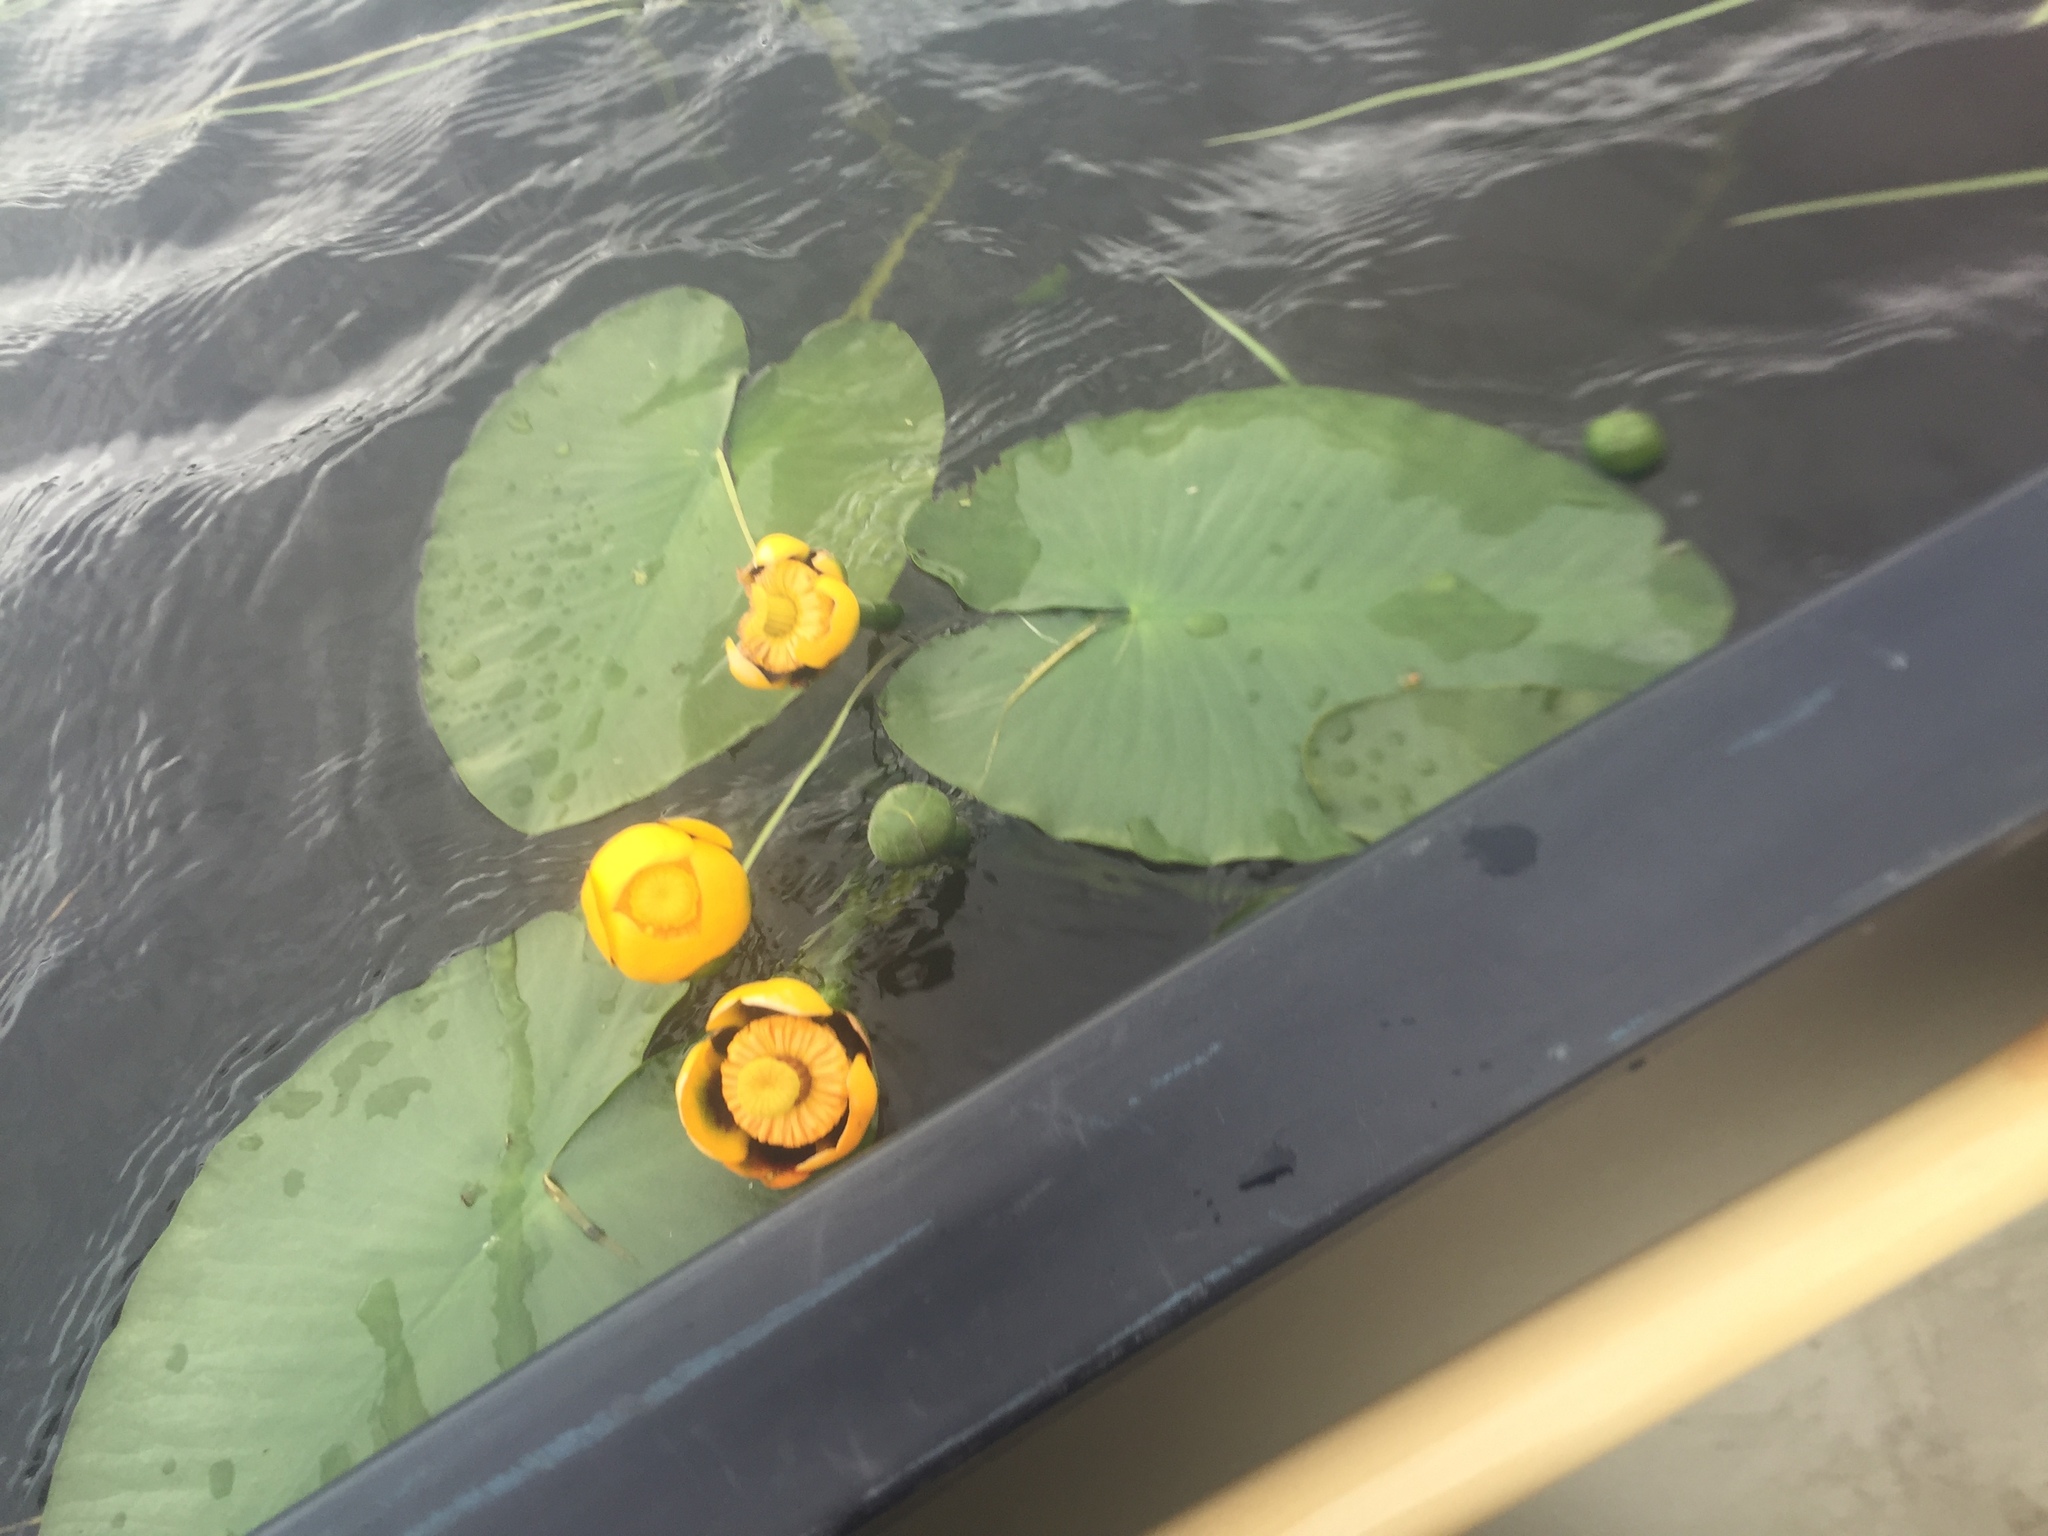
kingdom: Plantae
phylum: Tracheophyta
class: Magnoliopsida
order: Nymphaeales
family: Nymphaeaceae
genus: Nuphar
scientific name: Nuphar variegata
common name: Beaver-root
